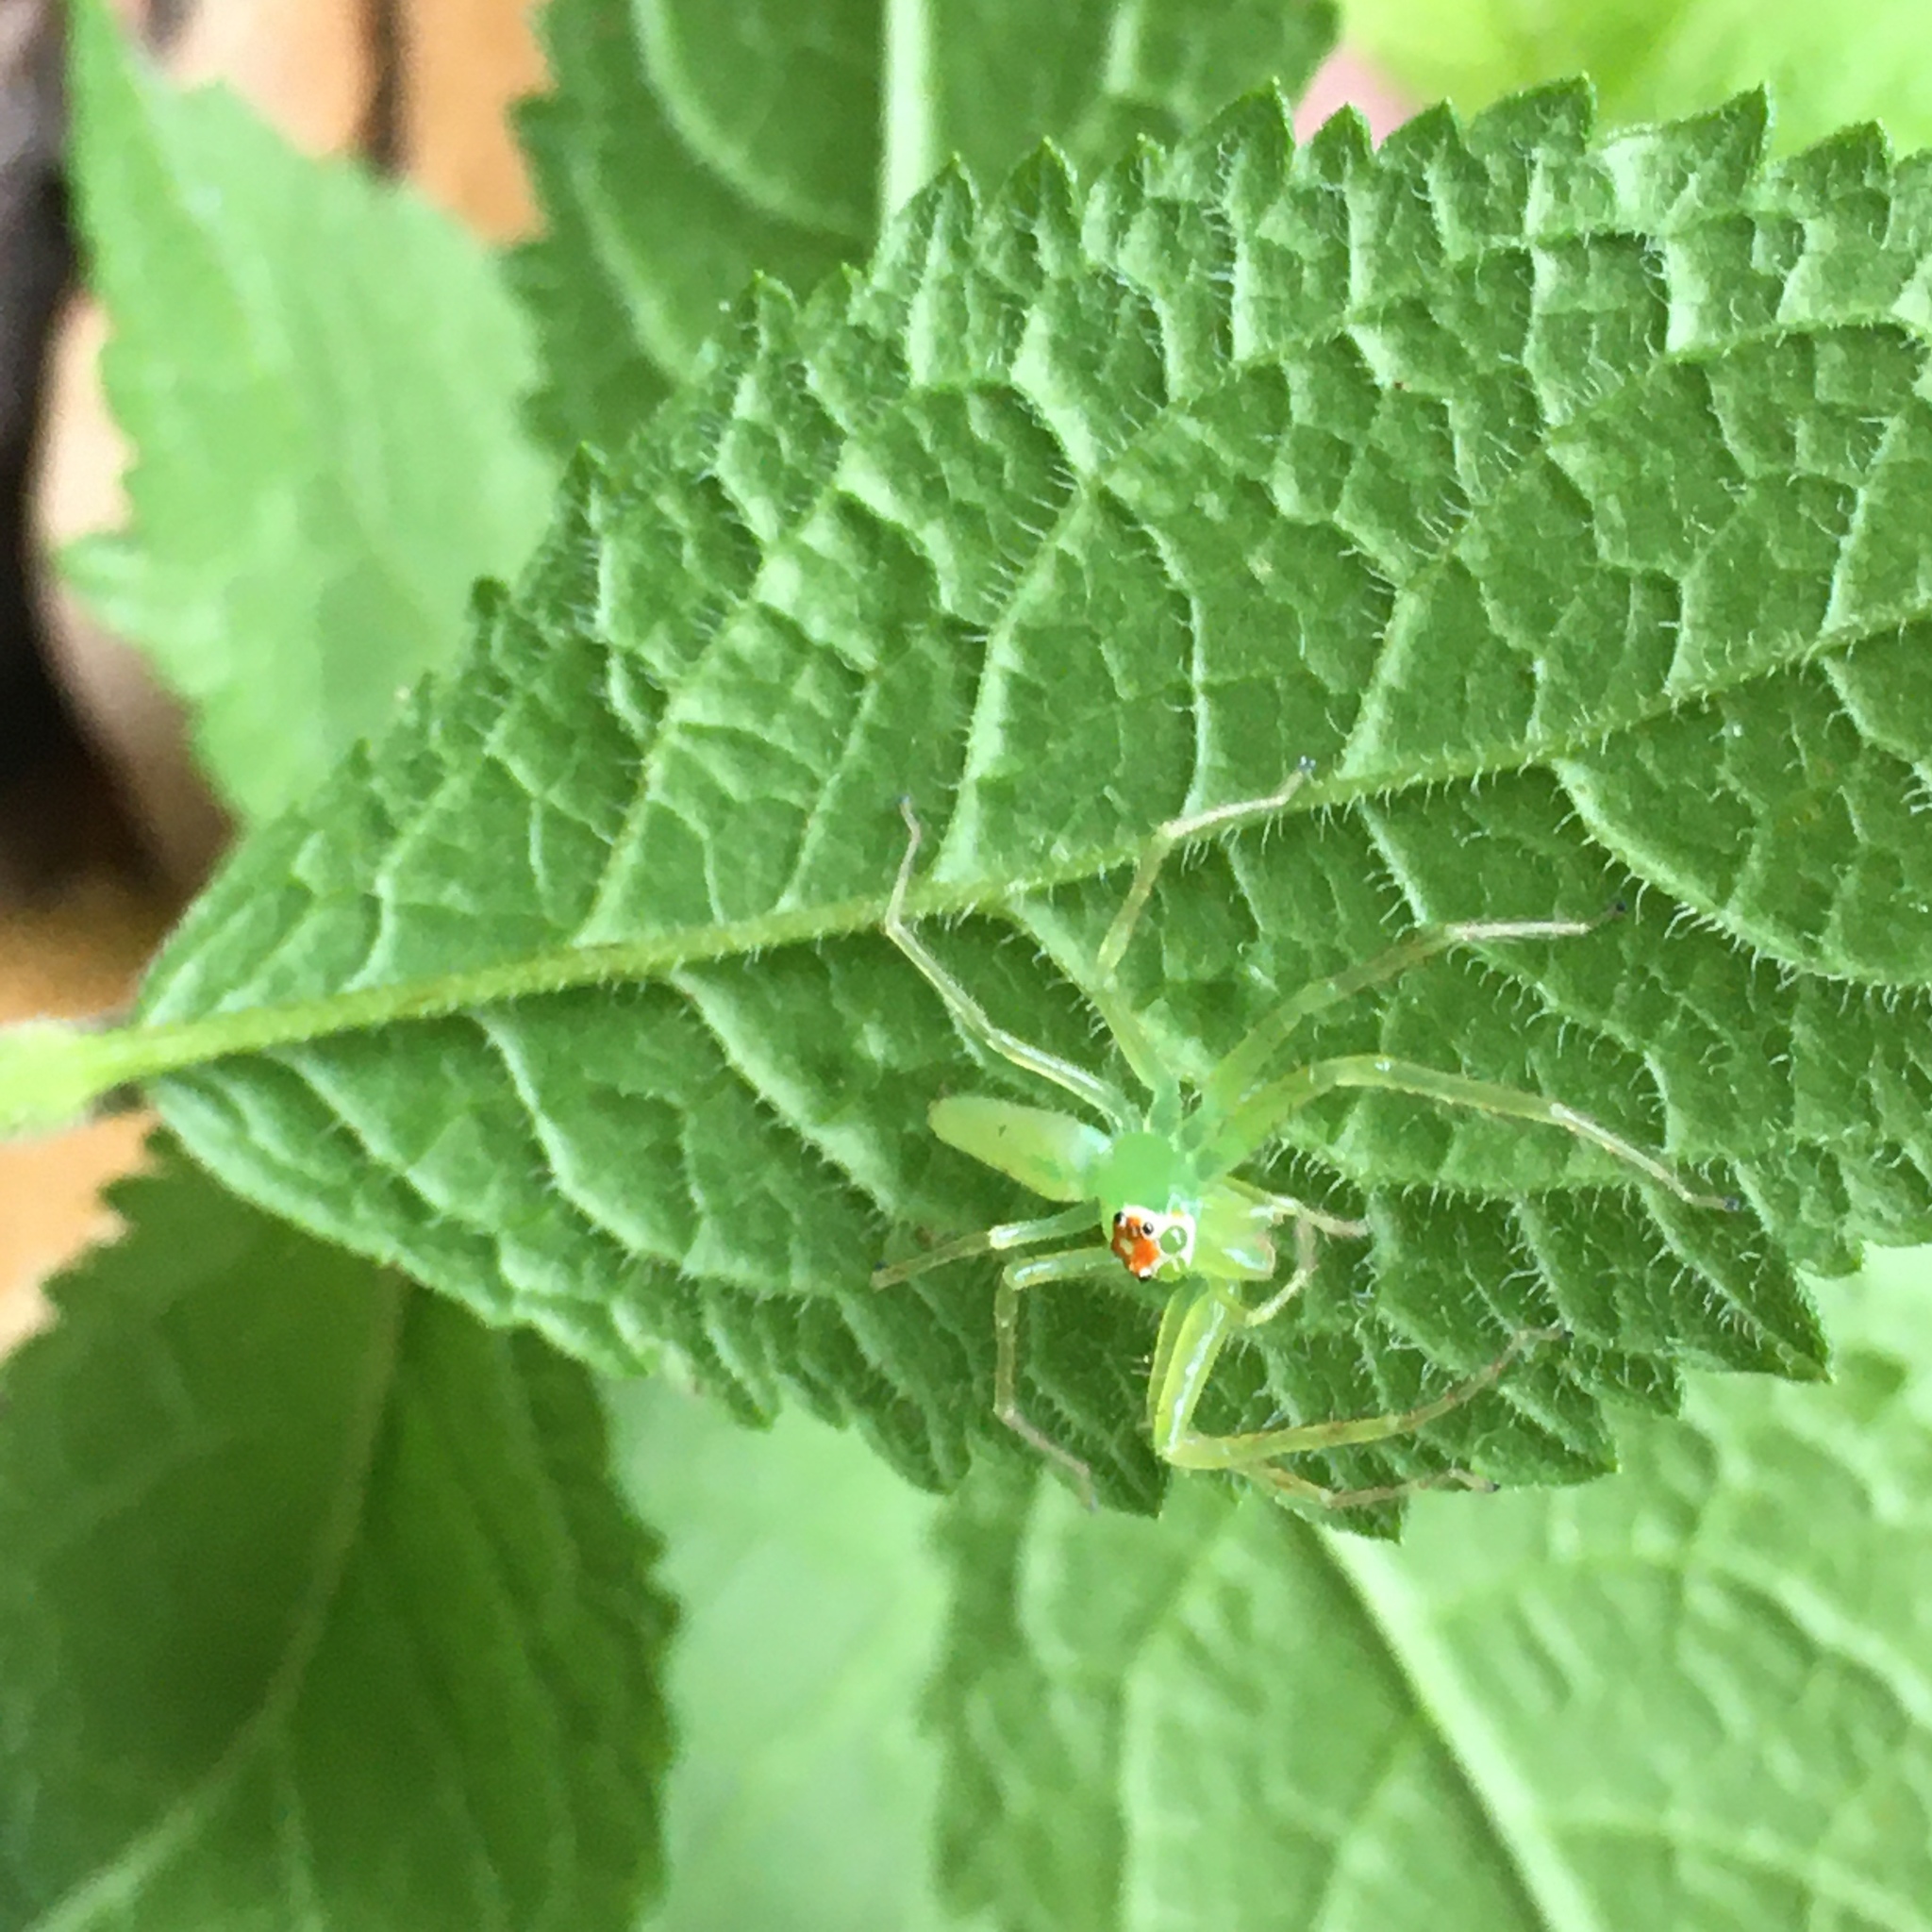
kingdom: Animalia
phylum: Arthropoda
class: Arachnida
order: Araneae
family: Salticidae
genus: Lyssomanes
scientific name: Lyssomanes viridis
